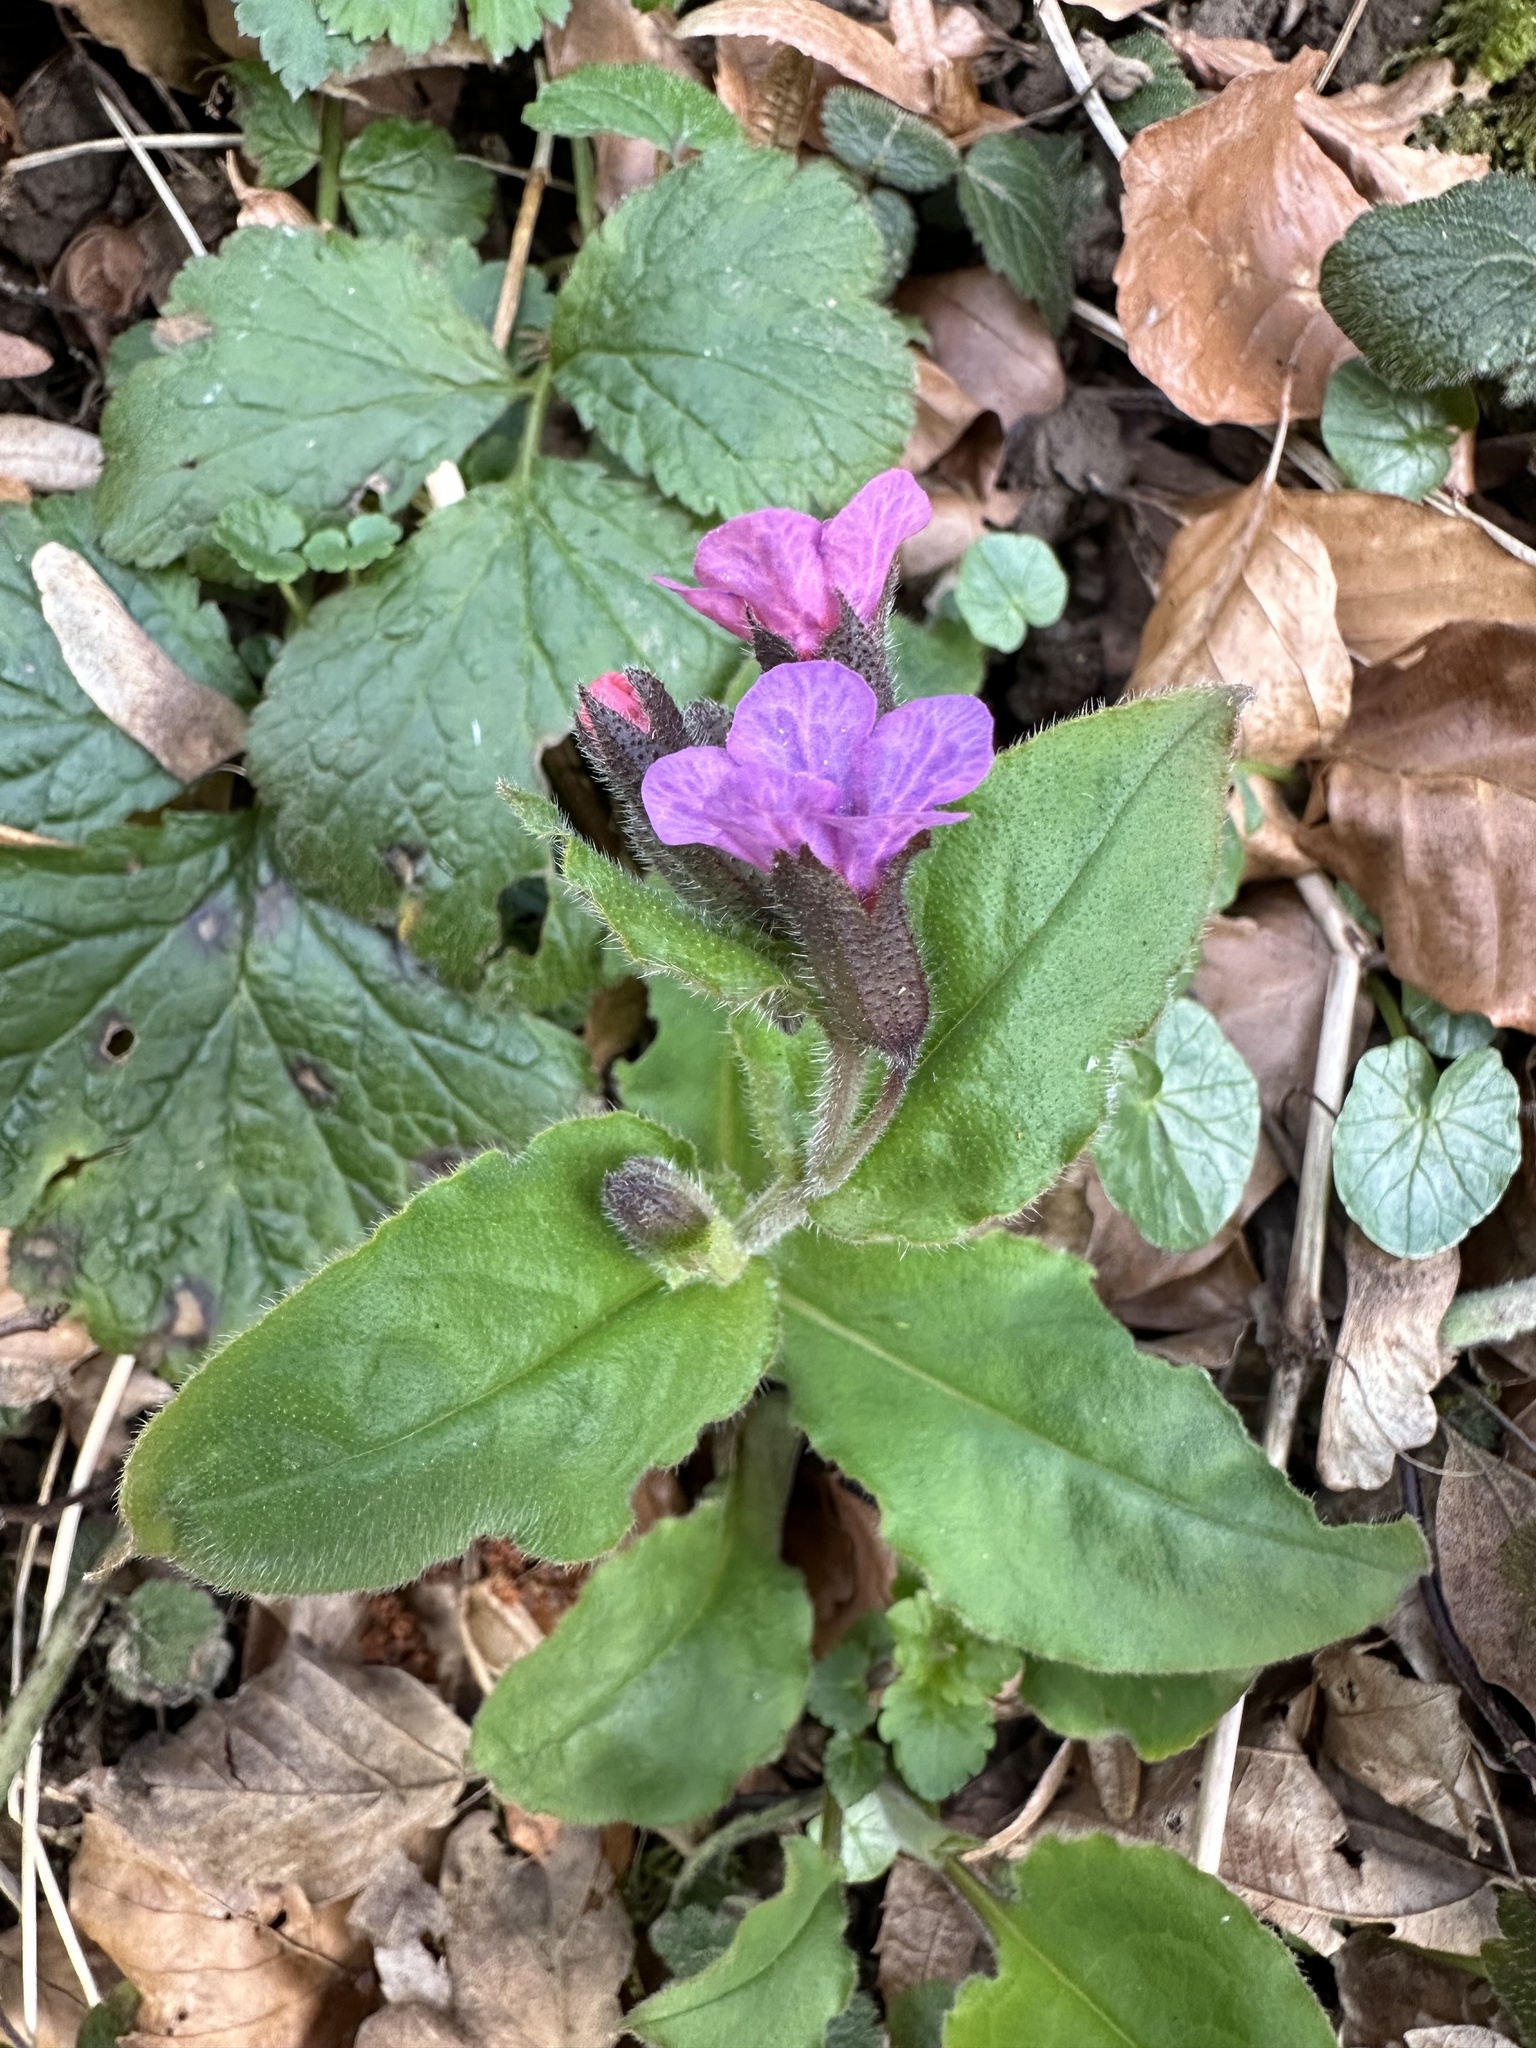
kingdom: Plantae
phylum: Tracheophyta
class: Magnoliopsida
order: Boraginales
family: Boraginaceae
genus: Pulmonaria
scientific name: Pulmonaria obscura
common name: Suffolk lungwort
